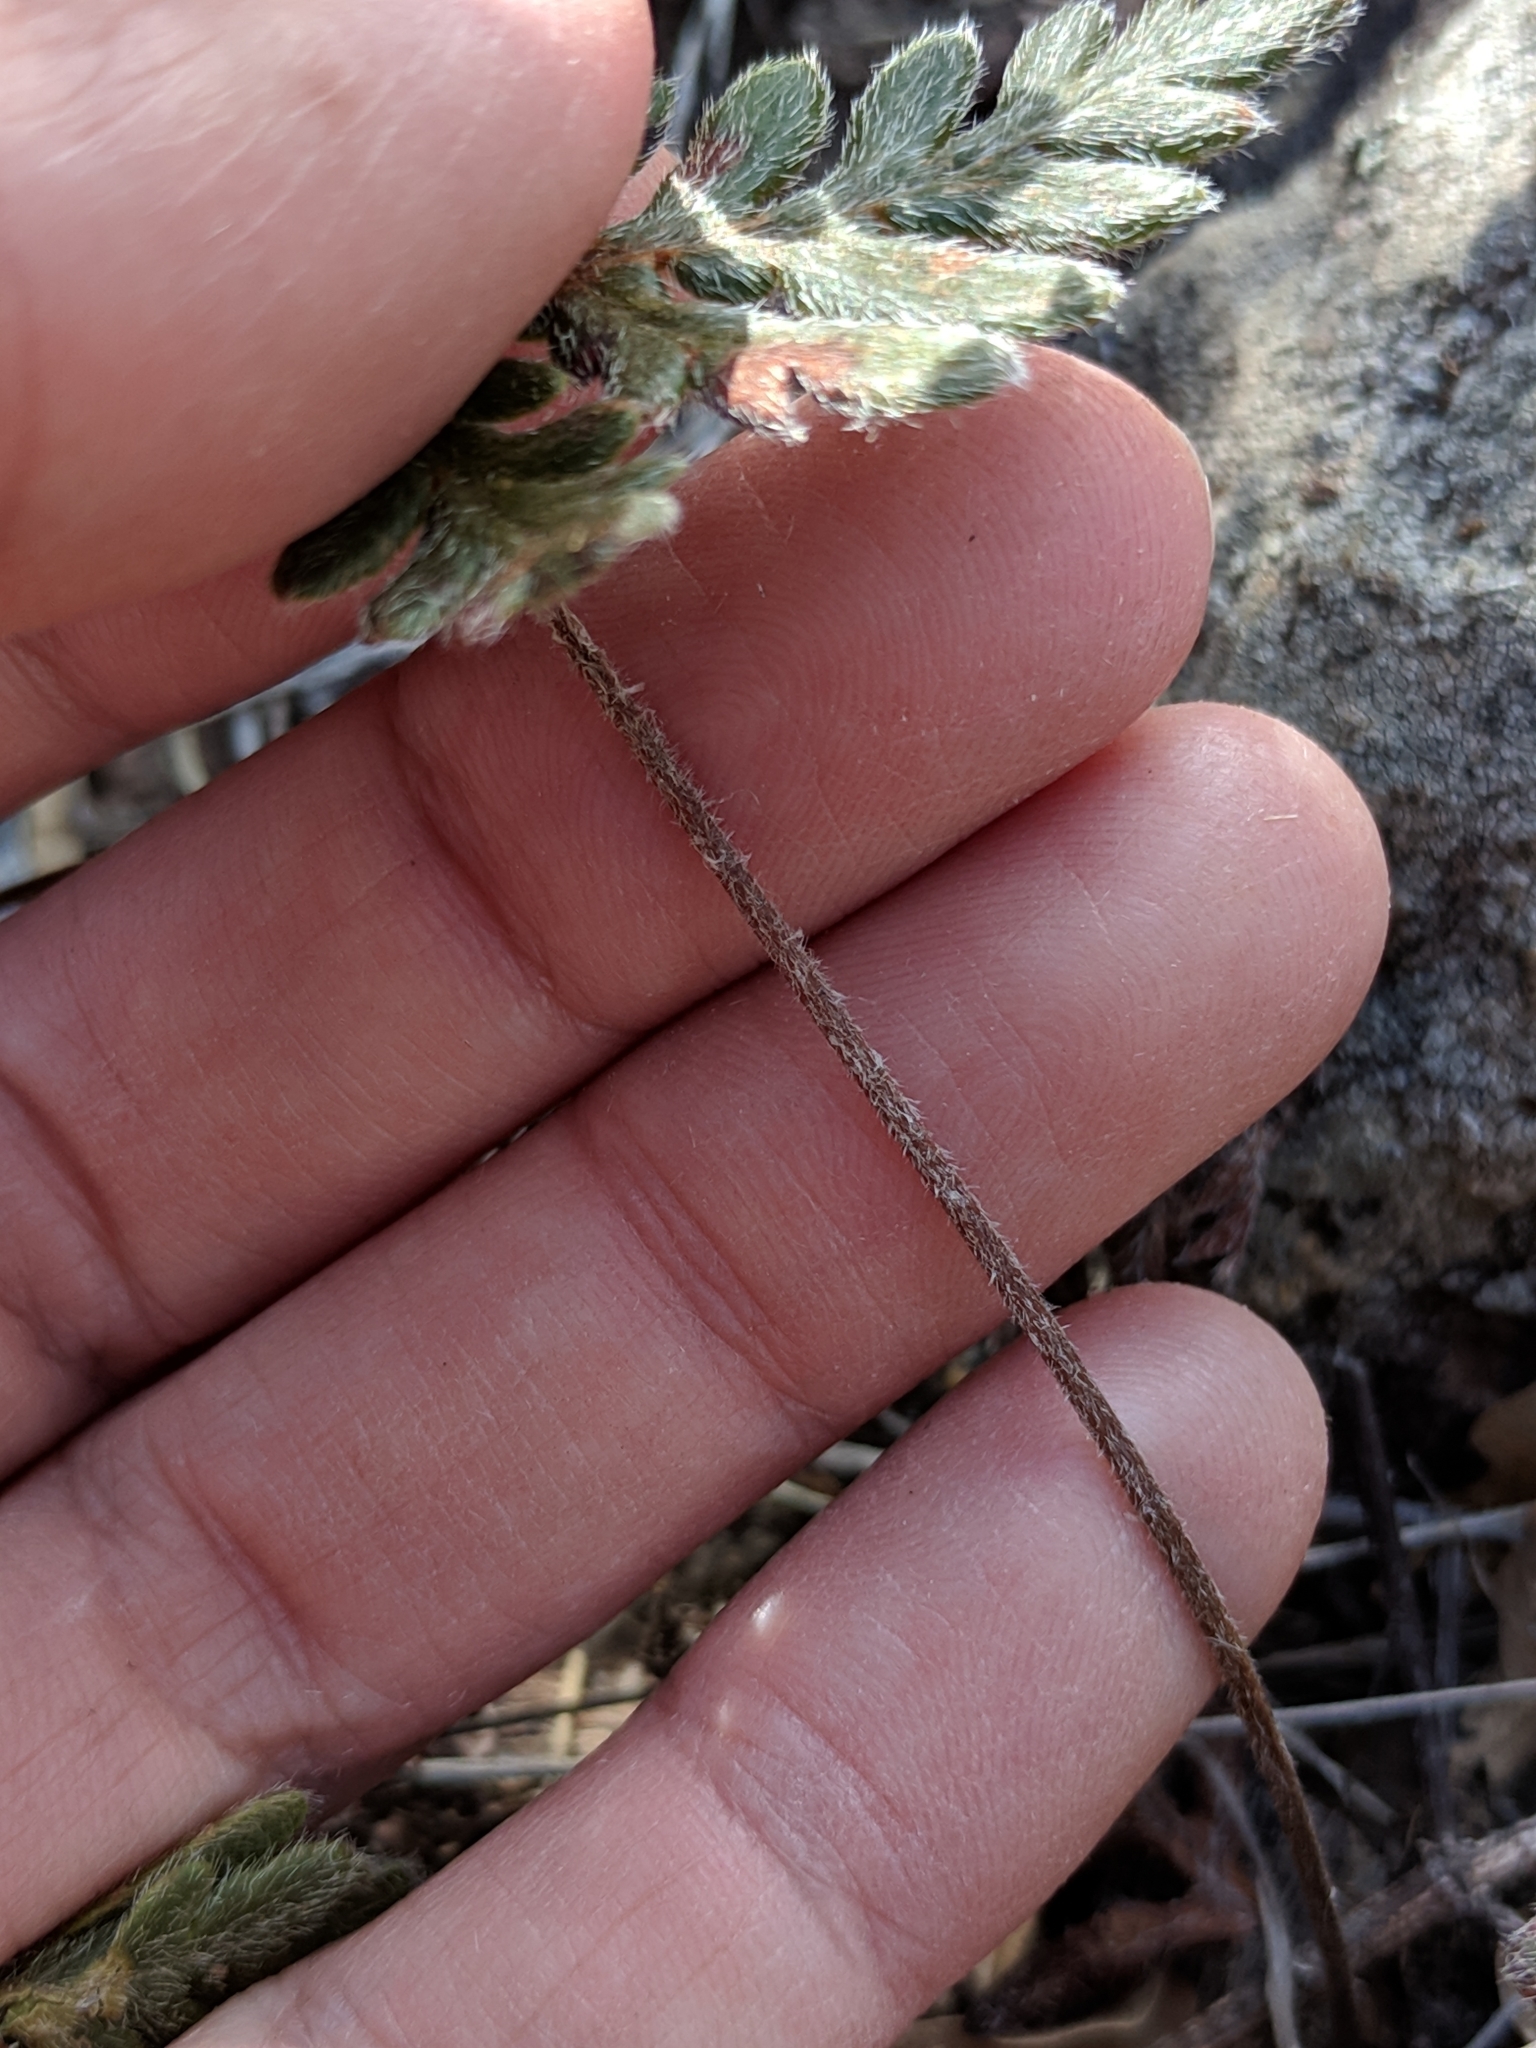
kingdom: Plantae
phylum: Tracheophyta
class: Polypodiopsida
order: Polypodiales
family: Pteridaceae
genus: Bommeria
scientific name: Bommeria hispida
